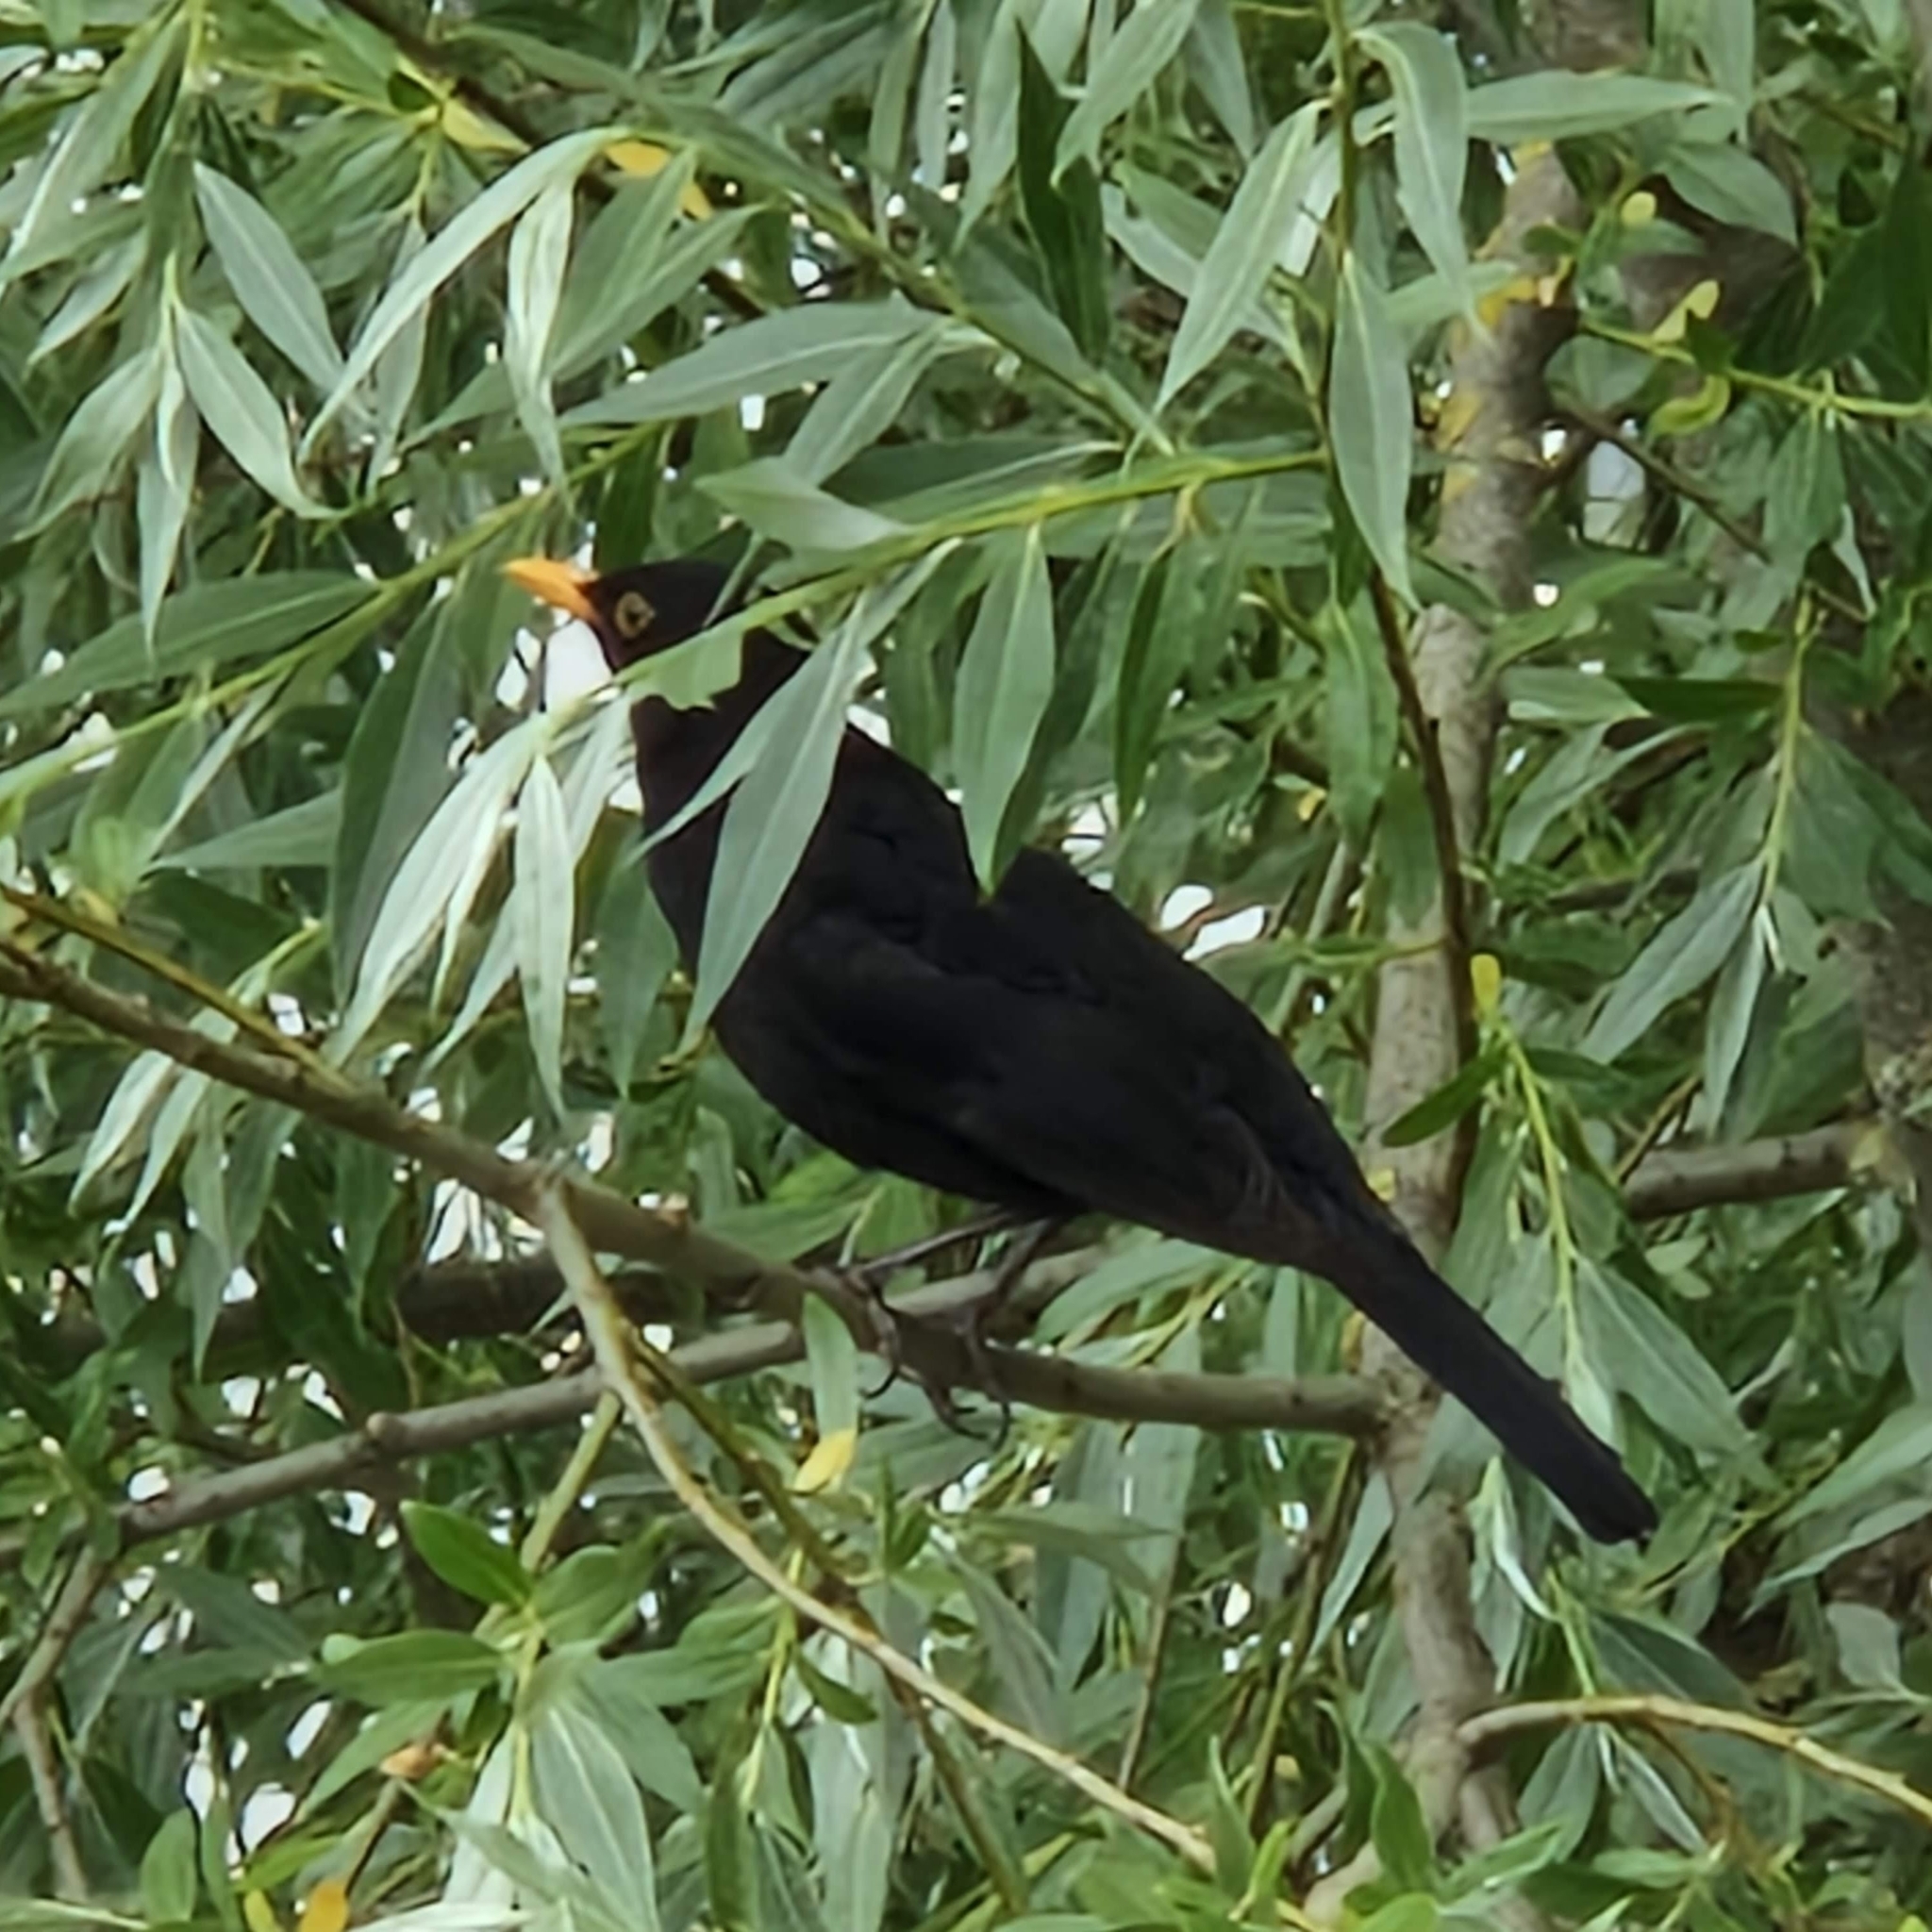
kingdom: Animalia
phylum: Chordata
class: Aves
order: Passeriformes
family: Turdidae
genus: Turdus
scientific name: Turdus merula
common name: Common blackbird
